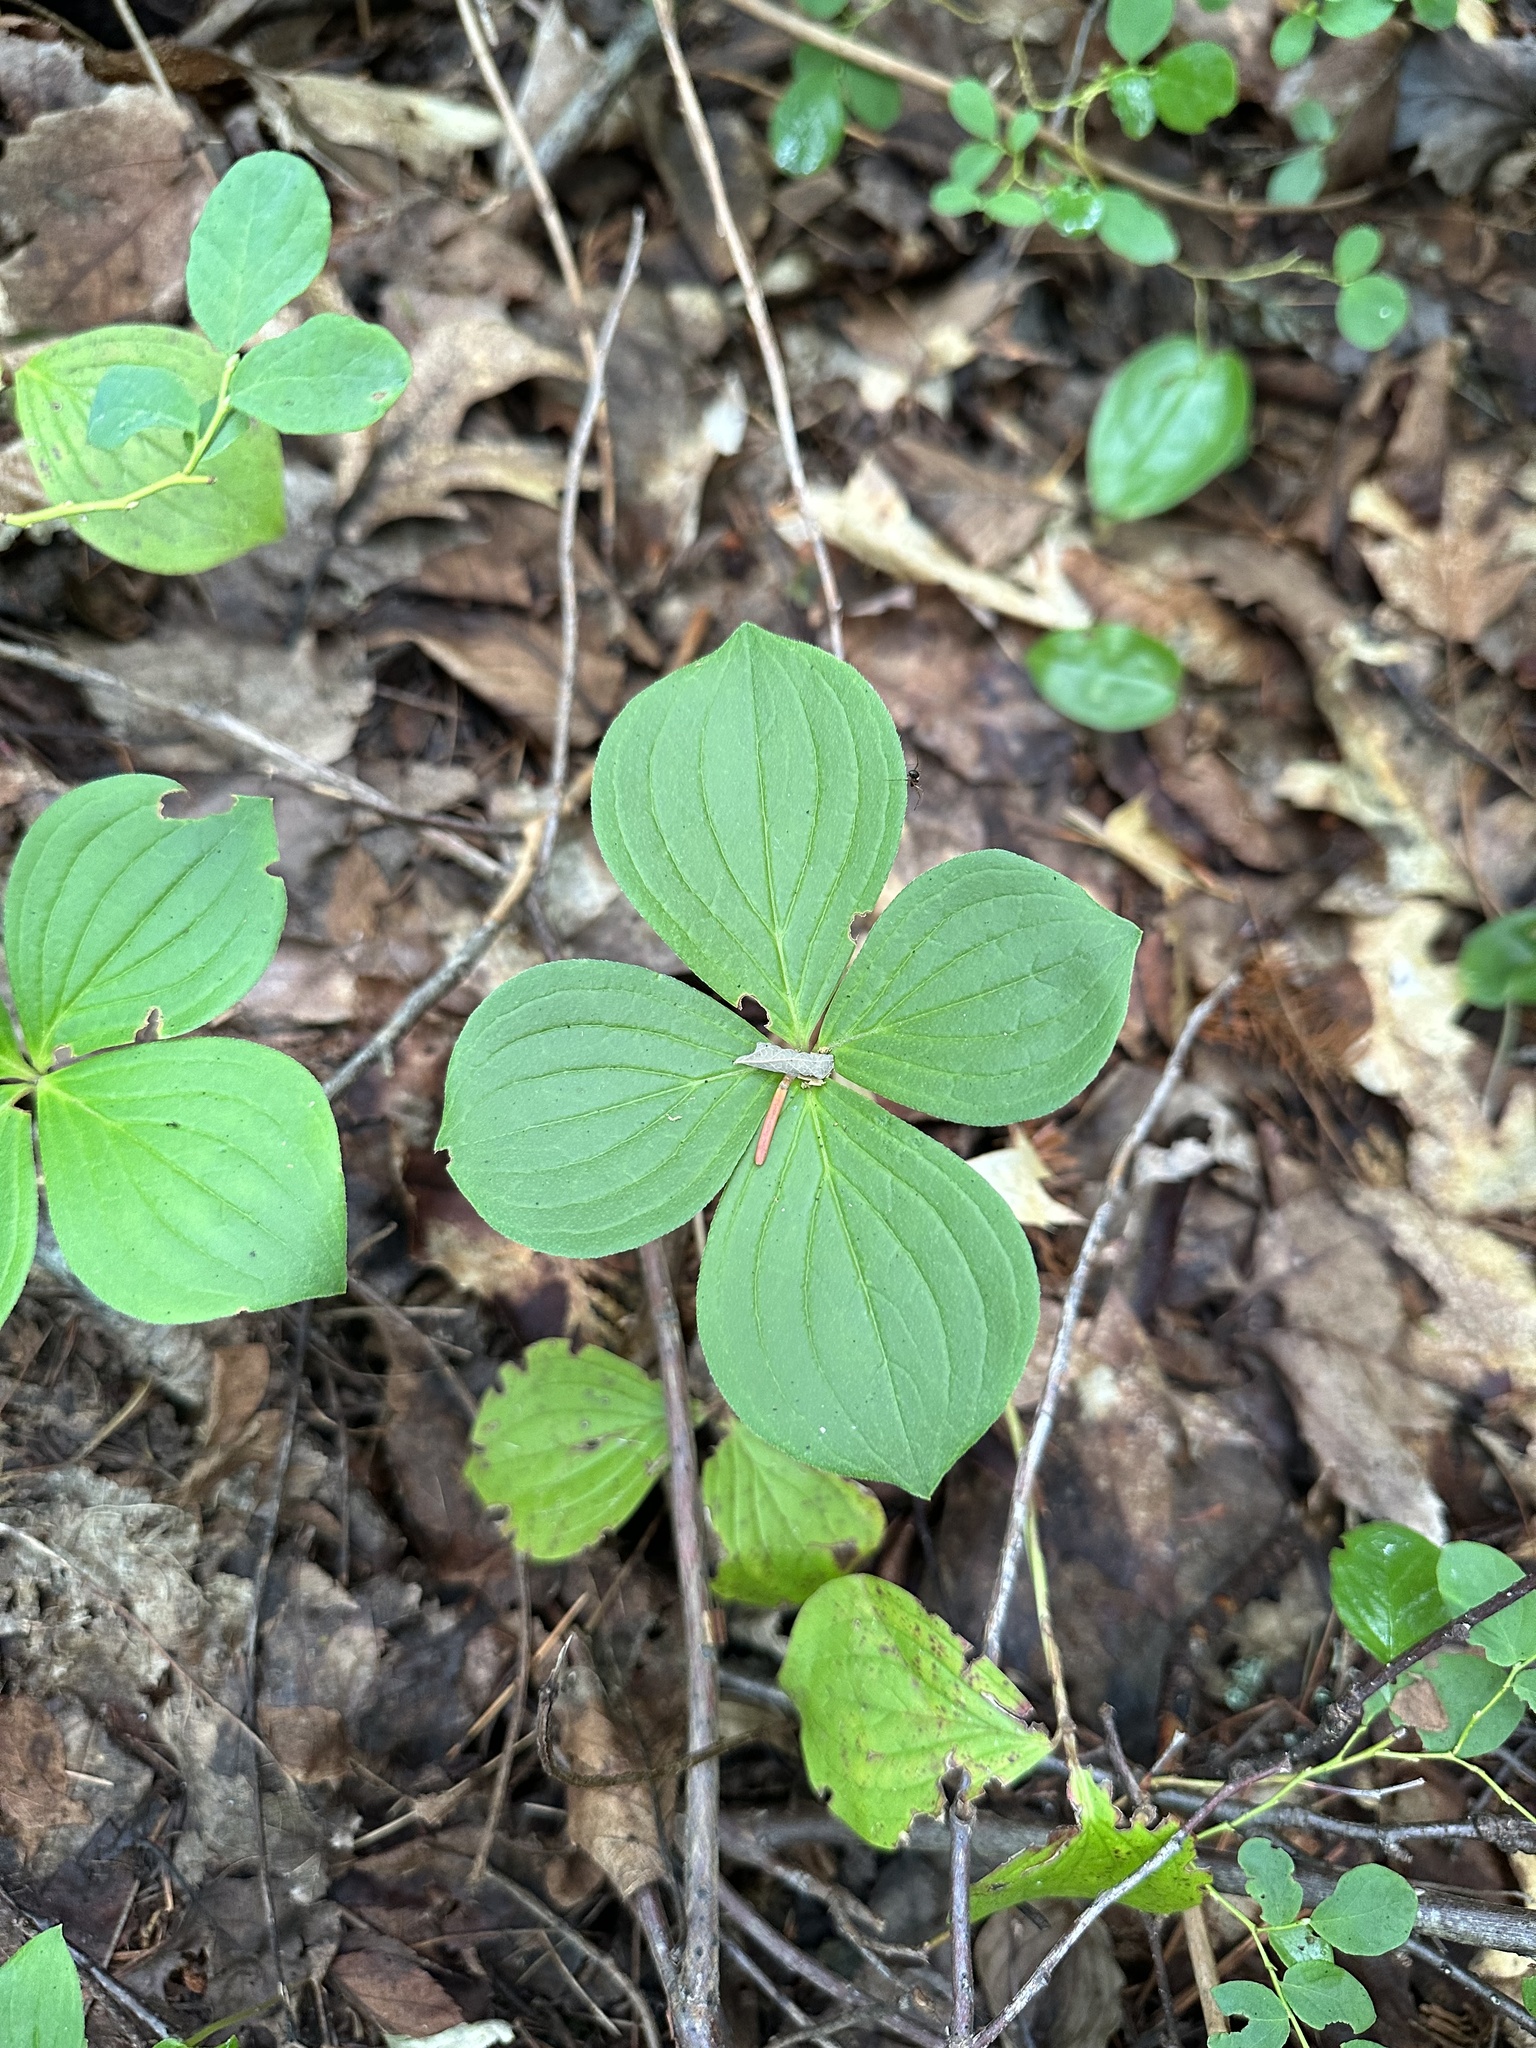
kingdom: Plantae
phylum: Tracheophyta
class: Magnoliopsida
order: Cornales
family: Cornaceae
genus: Cornus
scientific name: Cornus canadensis
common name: Creeping dogwood
